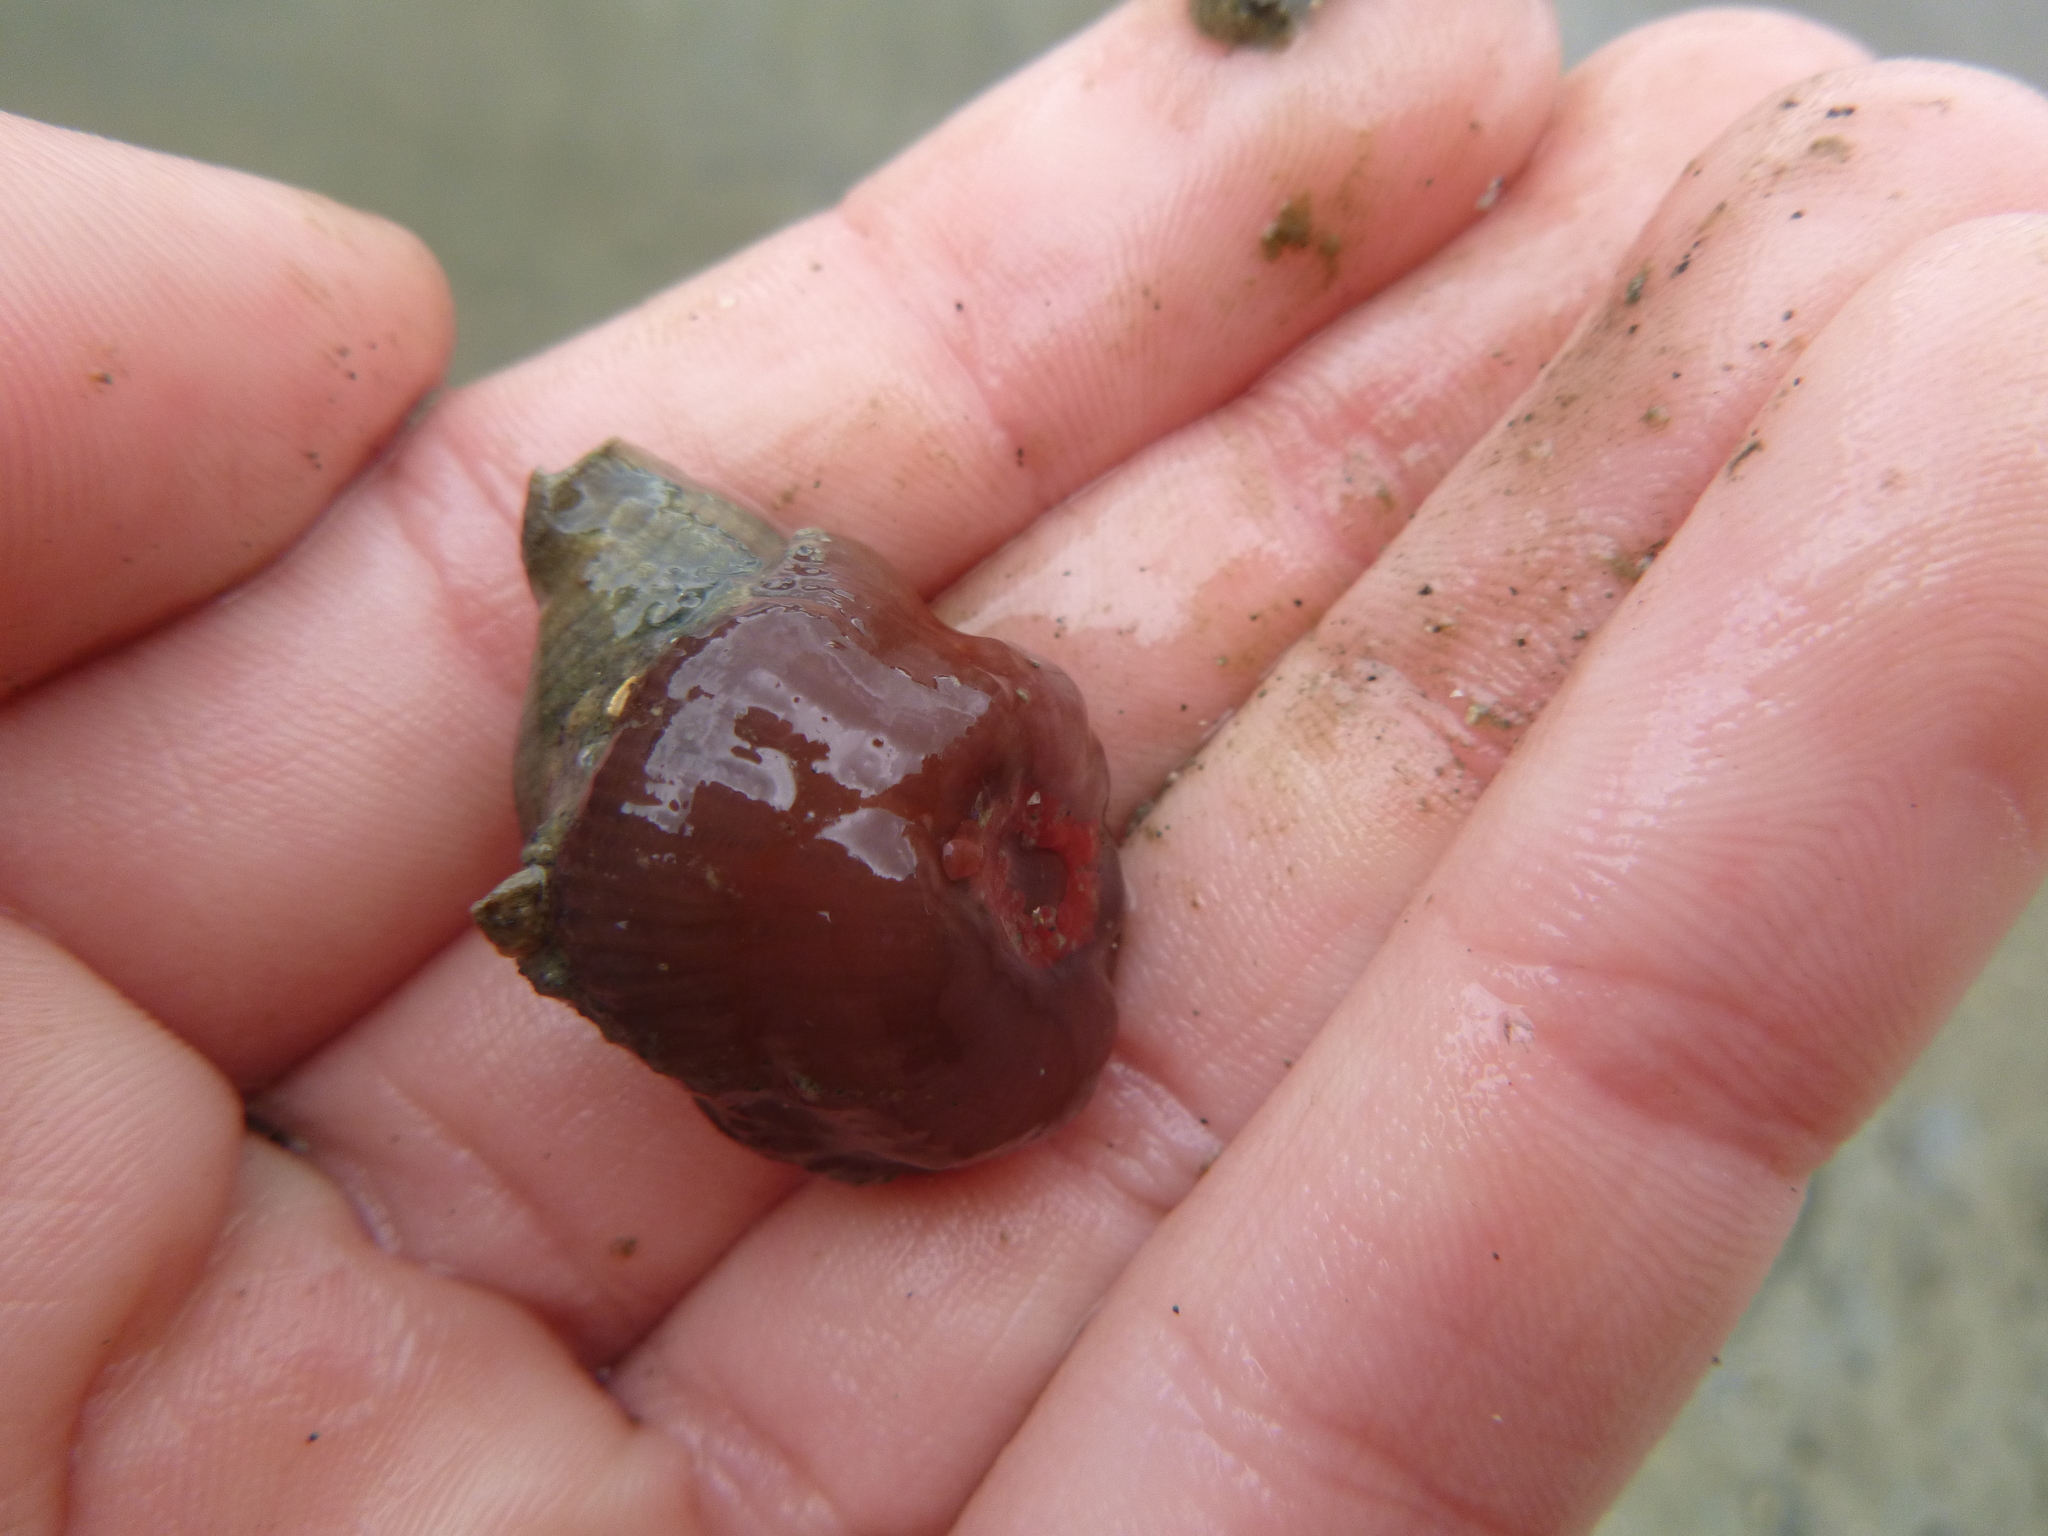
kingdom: Animalia
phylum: Cnidaria
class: Anthozoa
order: Actiniaria
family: Actiniidae
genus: Actinia
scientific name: Actinia tenebrosa
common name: Waratah anemone
